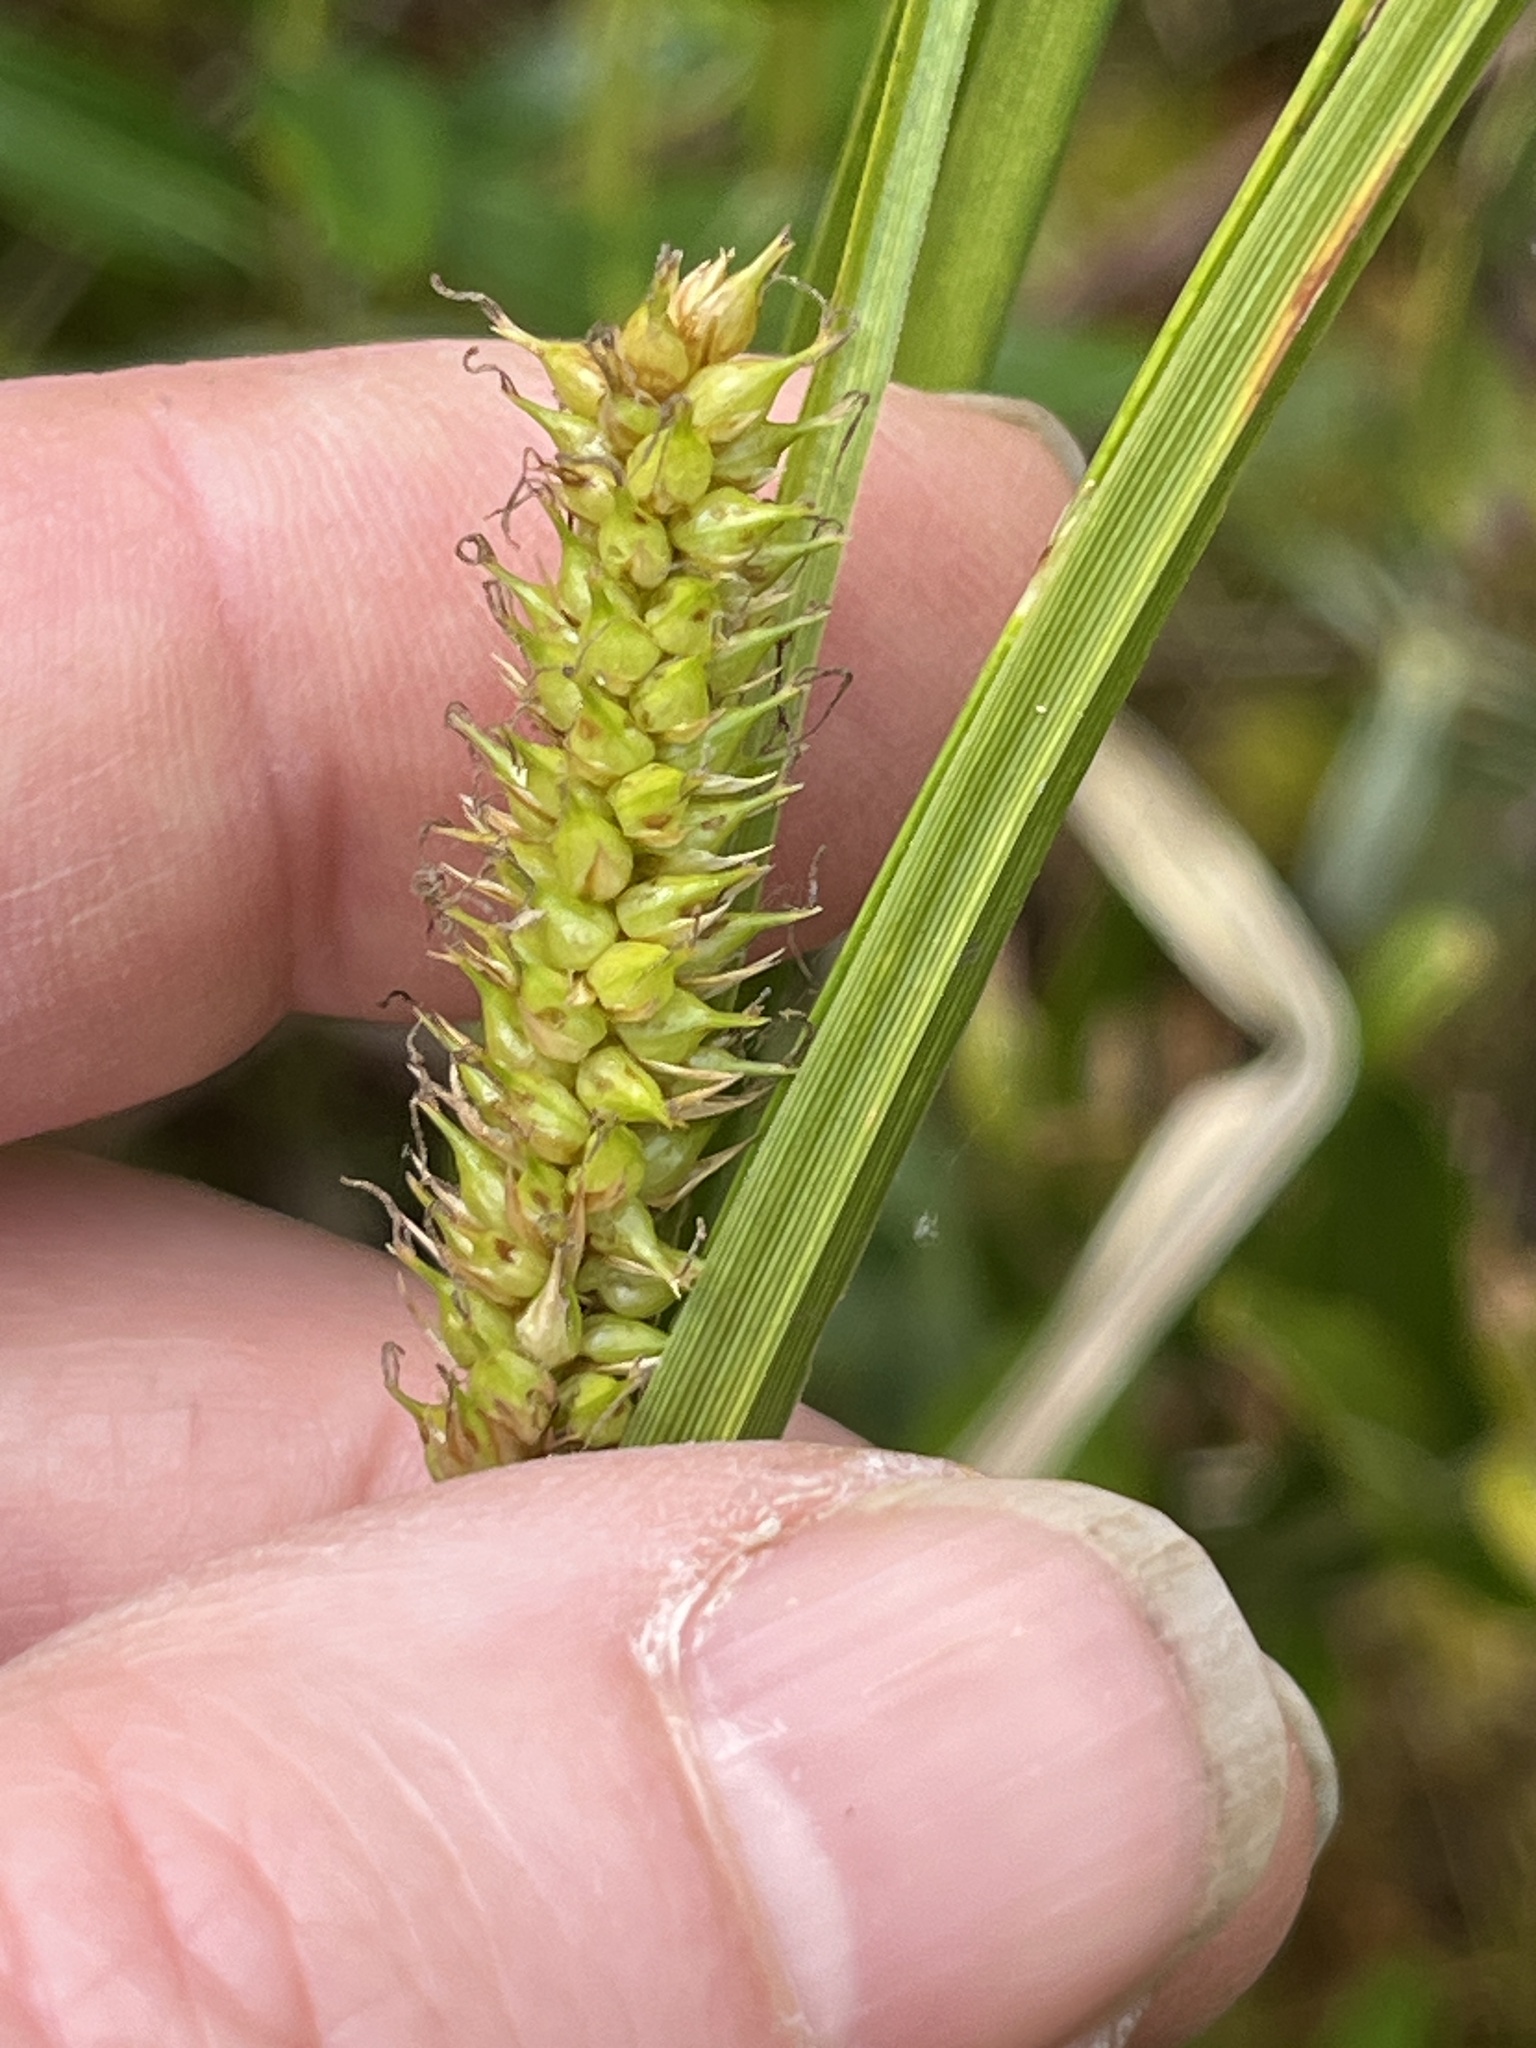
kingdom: Plantae
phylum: Tracheophyta
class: Liliopsida
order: Poales
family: Cyperaceae
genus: Carex
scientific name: Carex utriculata
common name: Beaked sedge
